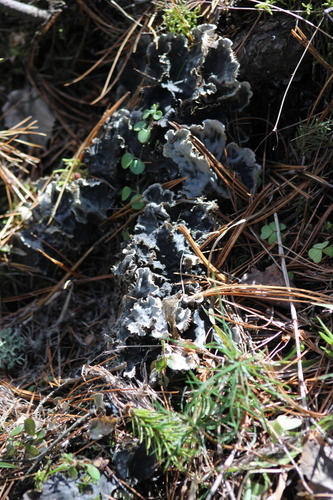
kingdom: Fungi
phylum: Ascomycota
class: Lecanoromycetes
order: Peltigerales
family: Peltigeraceae
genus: Peltigera
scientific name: Peltigera
